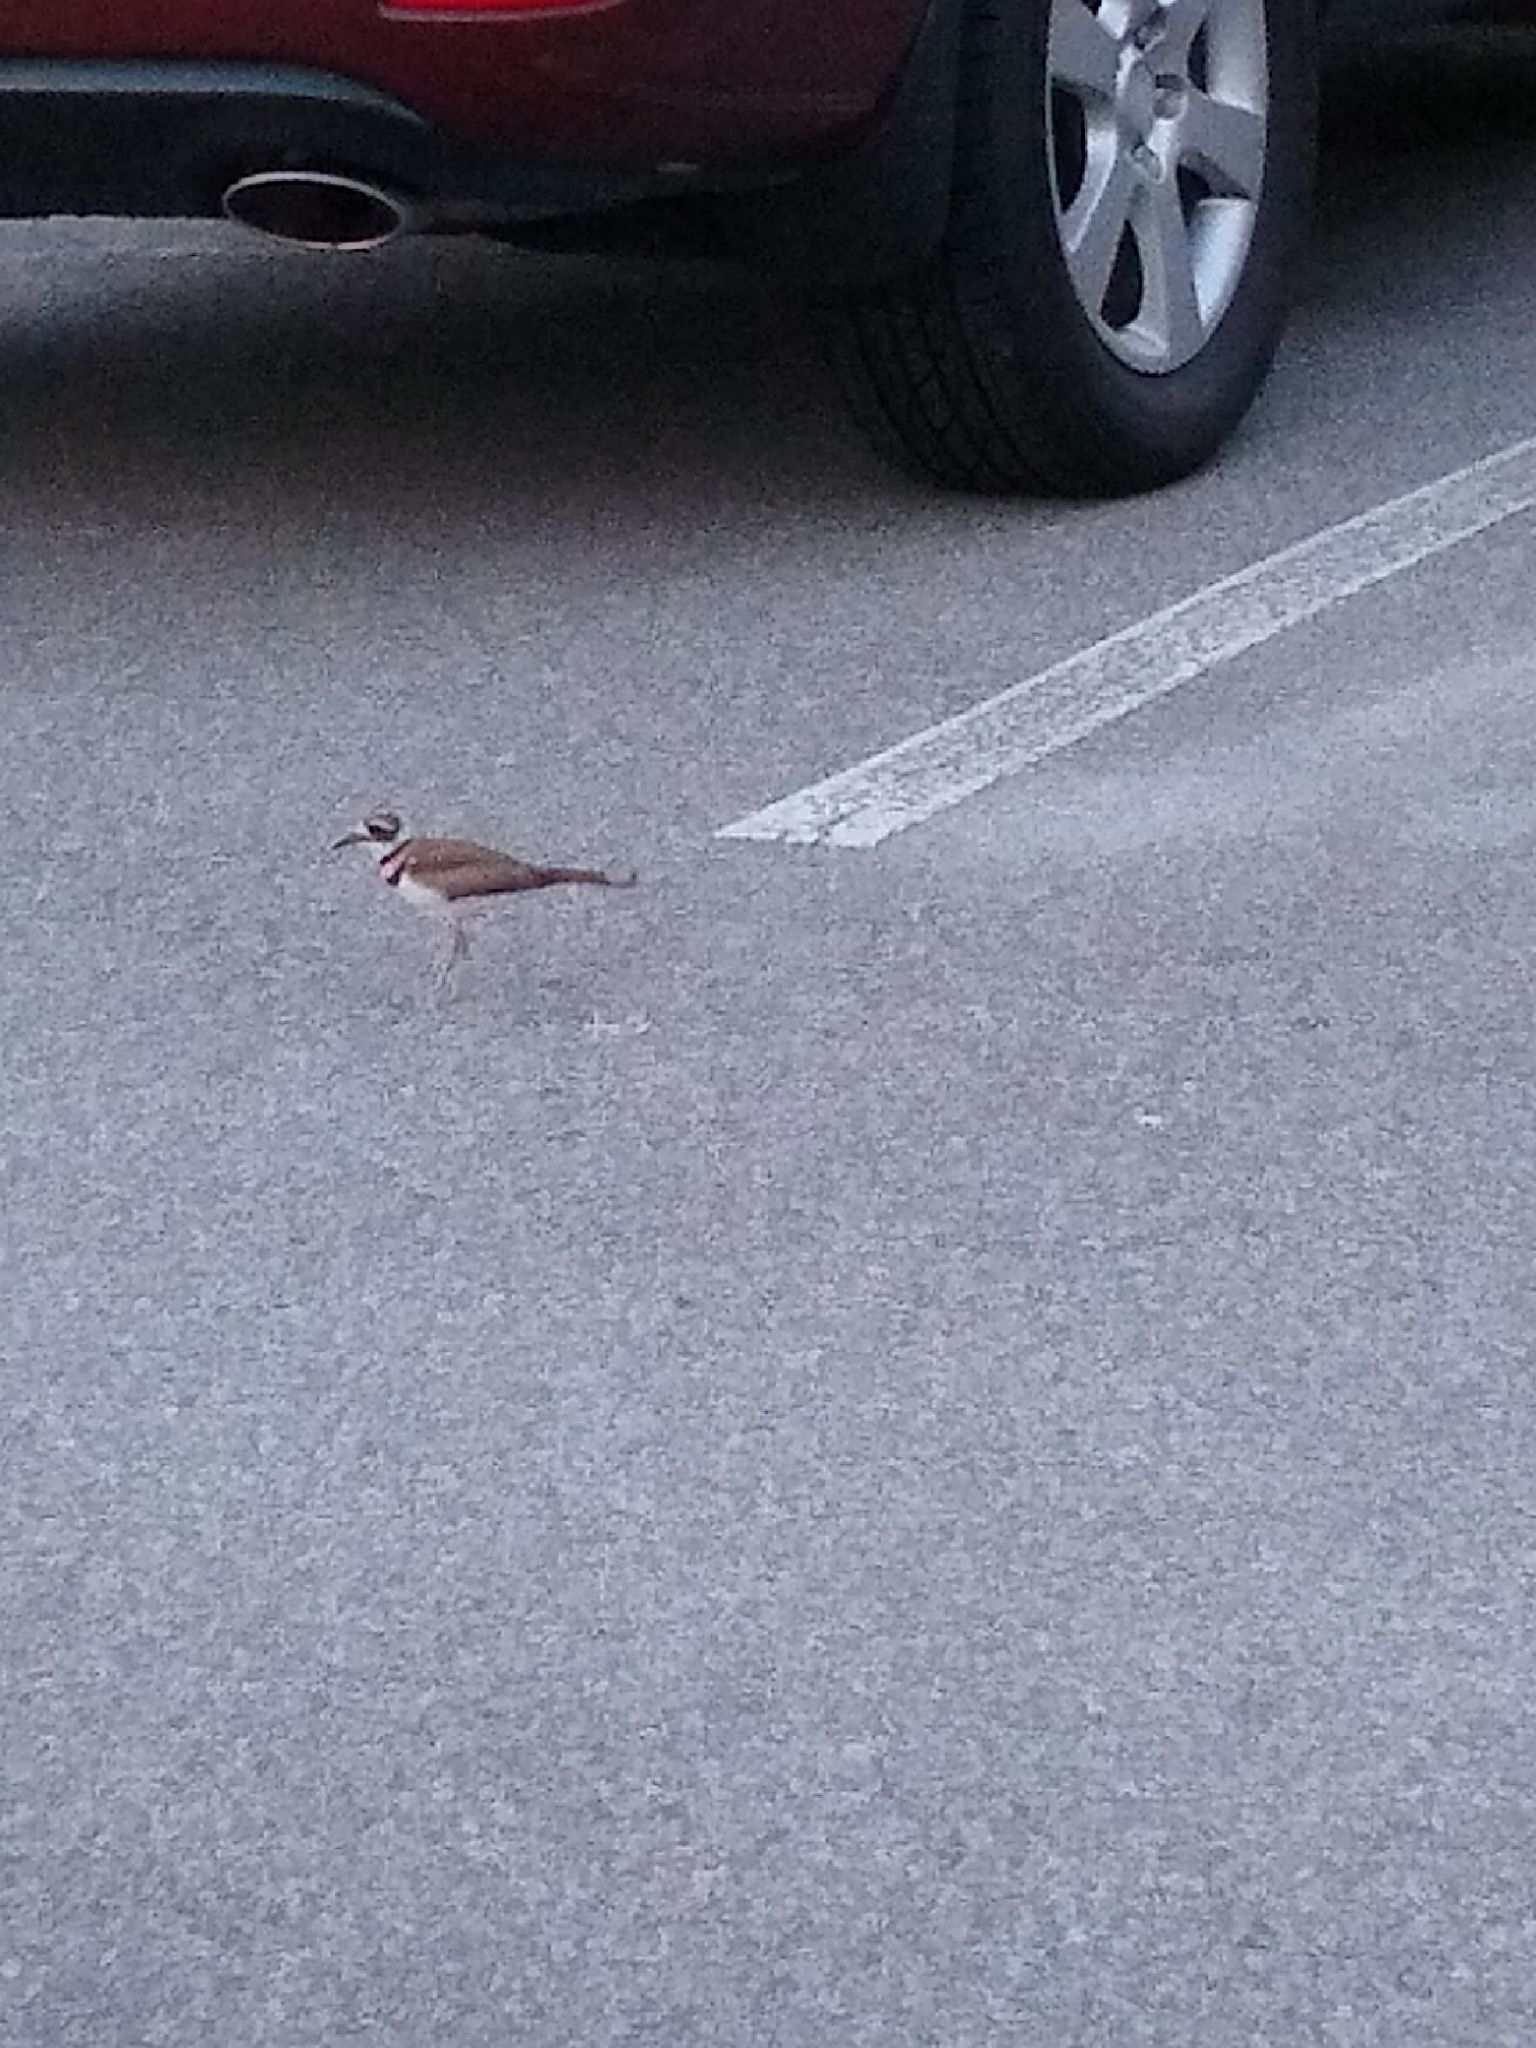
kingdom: Animalia
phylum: Chordata
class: Aves
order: Charadriiformes
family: Charadriidae
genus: Charadrius
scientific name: Charadrius vociferus
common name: Killdeer
